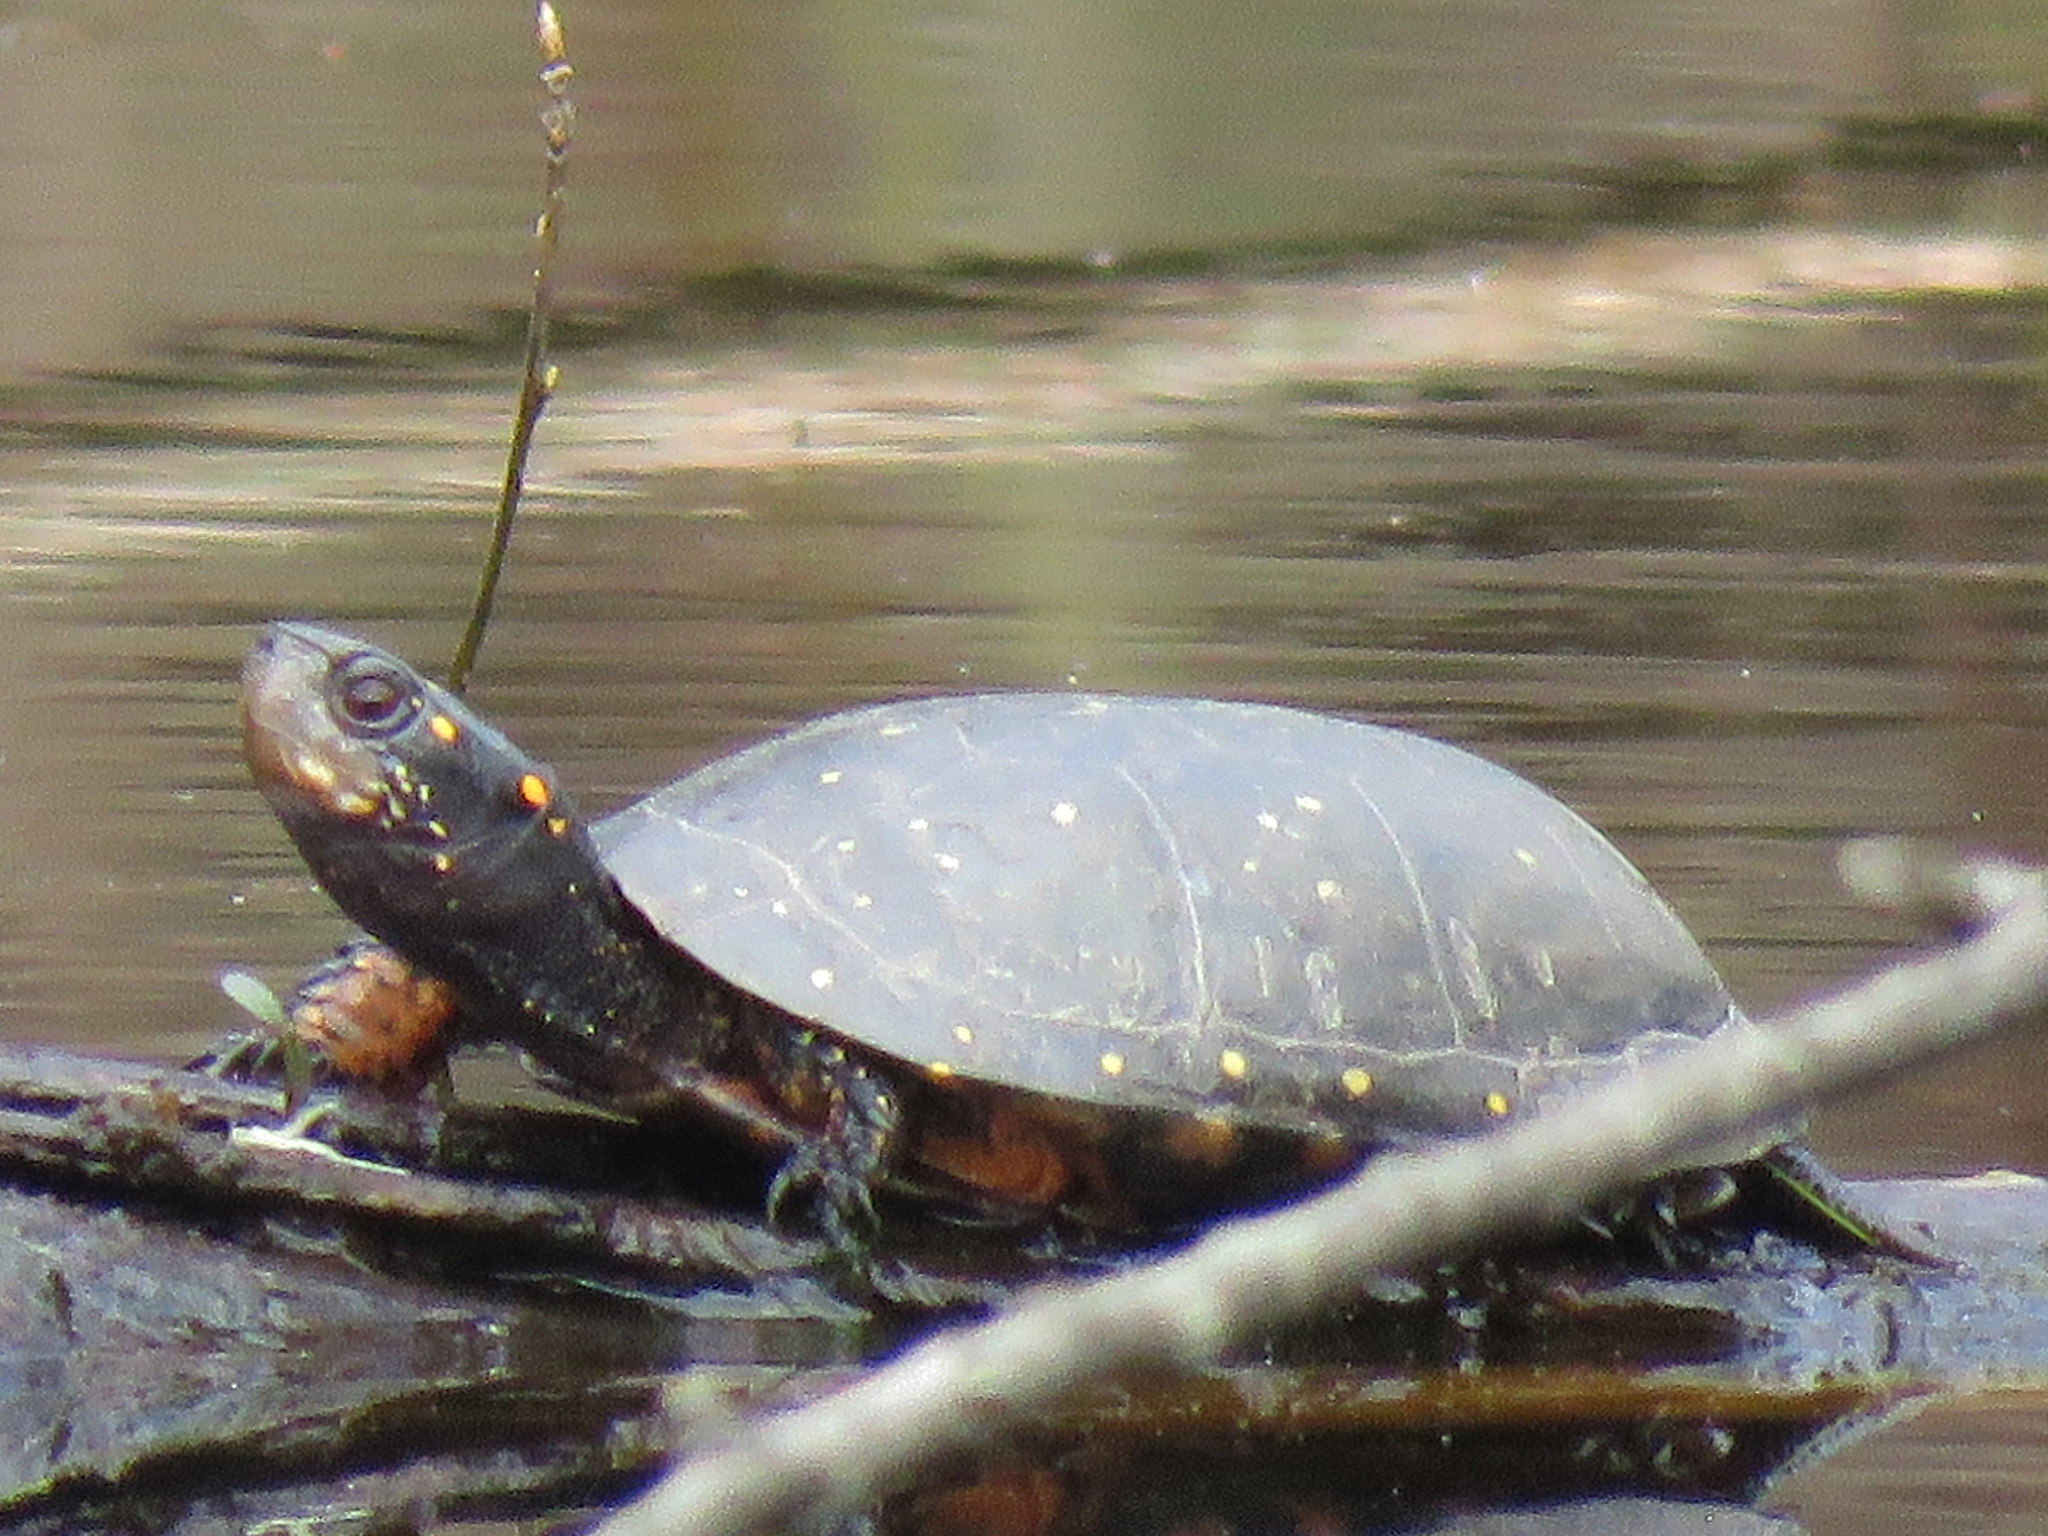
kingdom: Animalia
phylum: Chordata
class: Testudines
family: Emydidae
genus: Clemmys
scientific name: Clemmys guttata
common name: Spotted turtle
